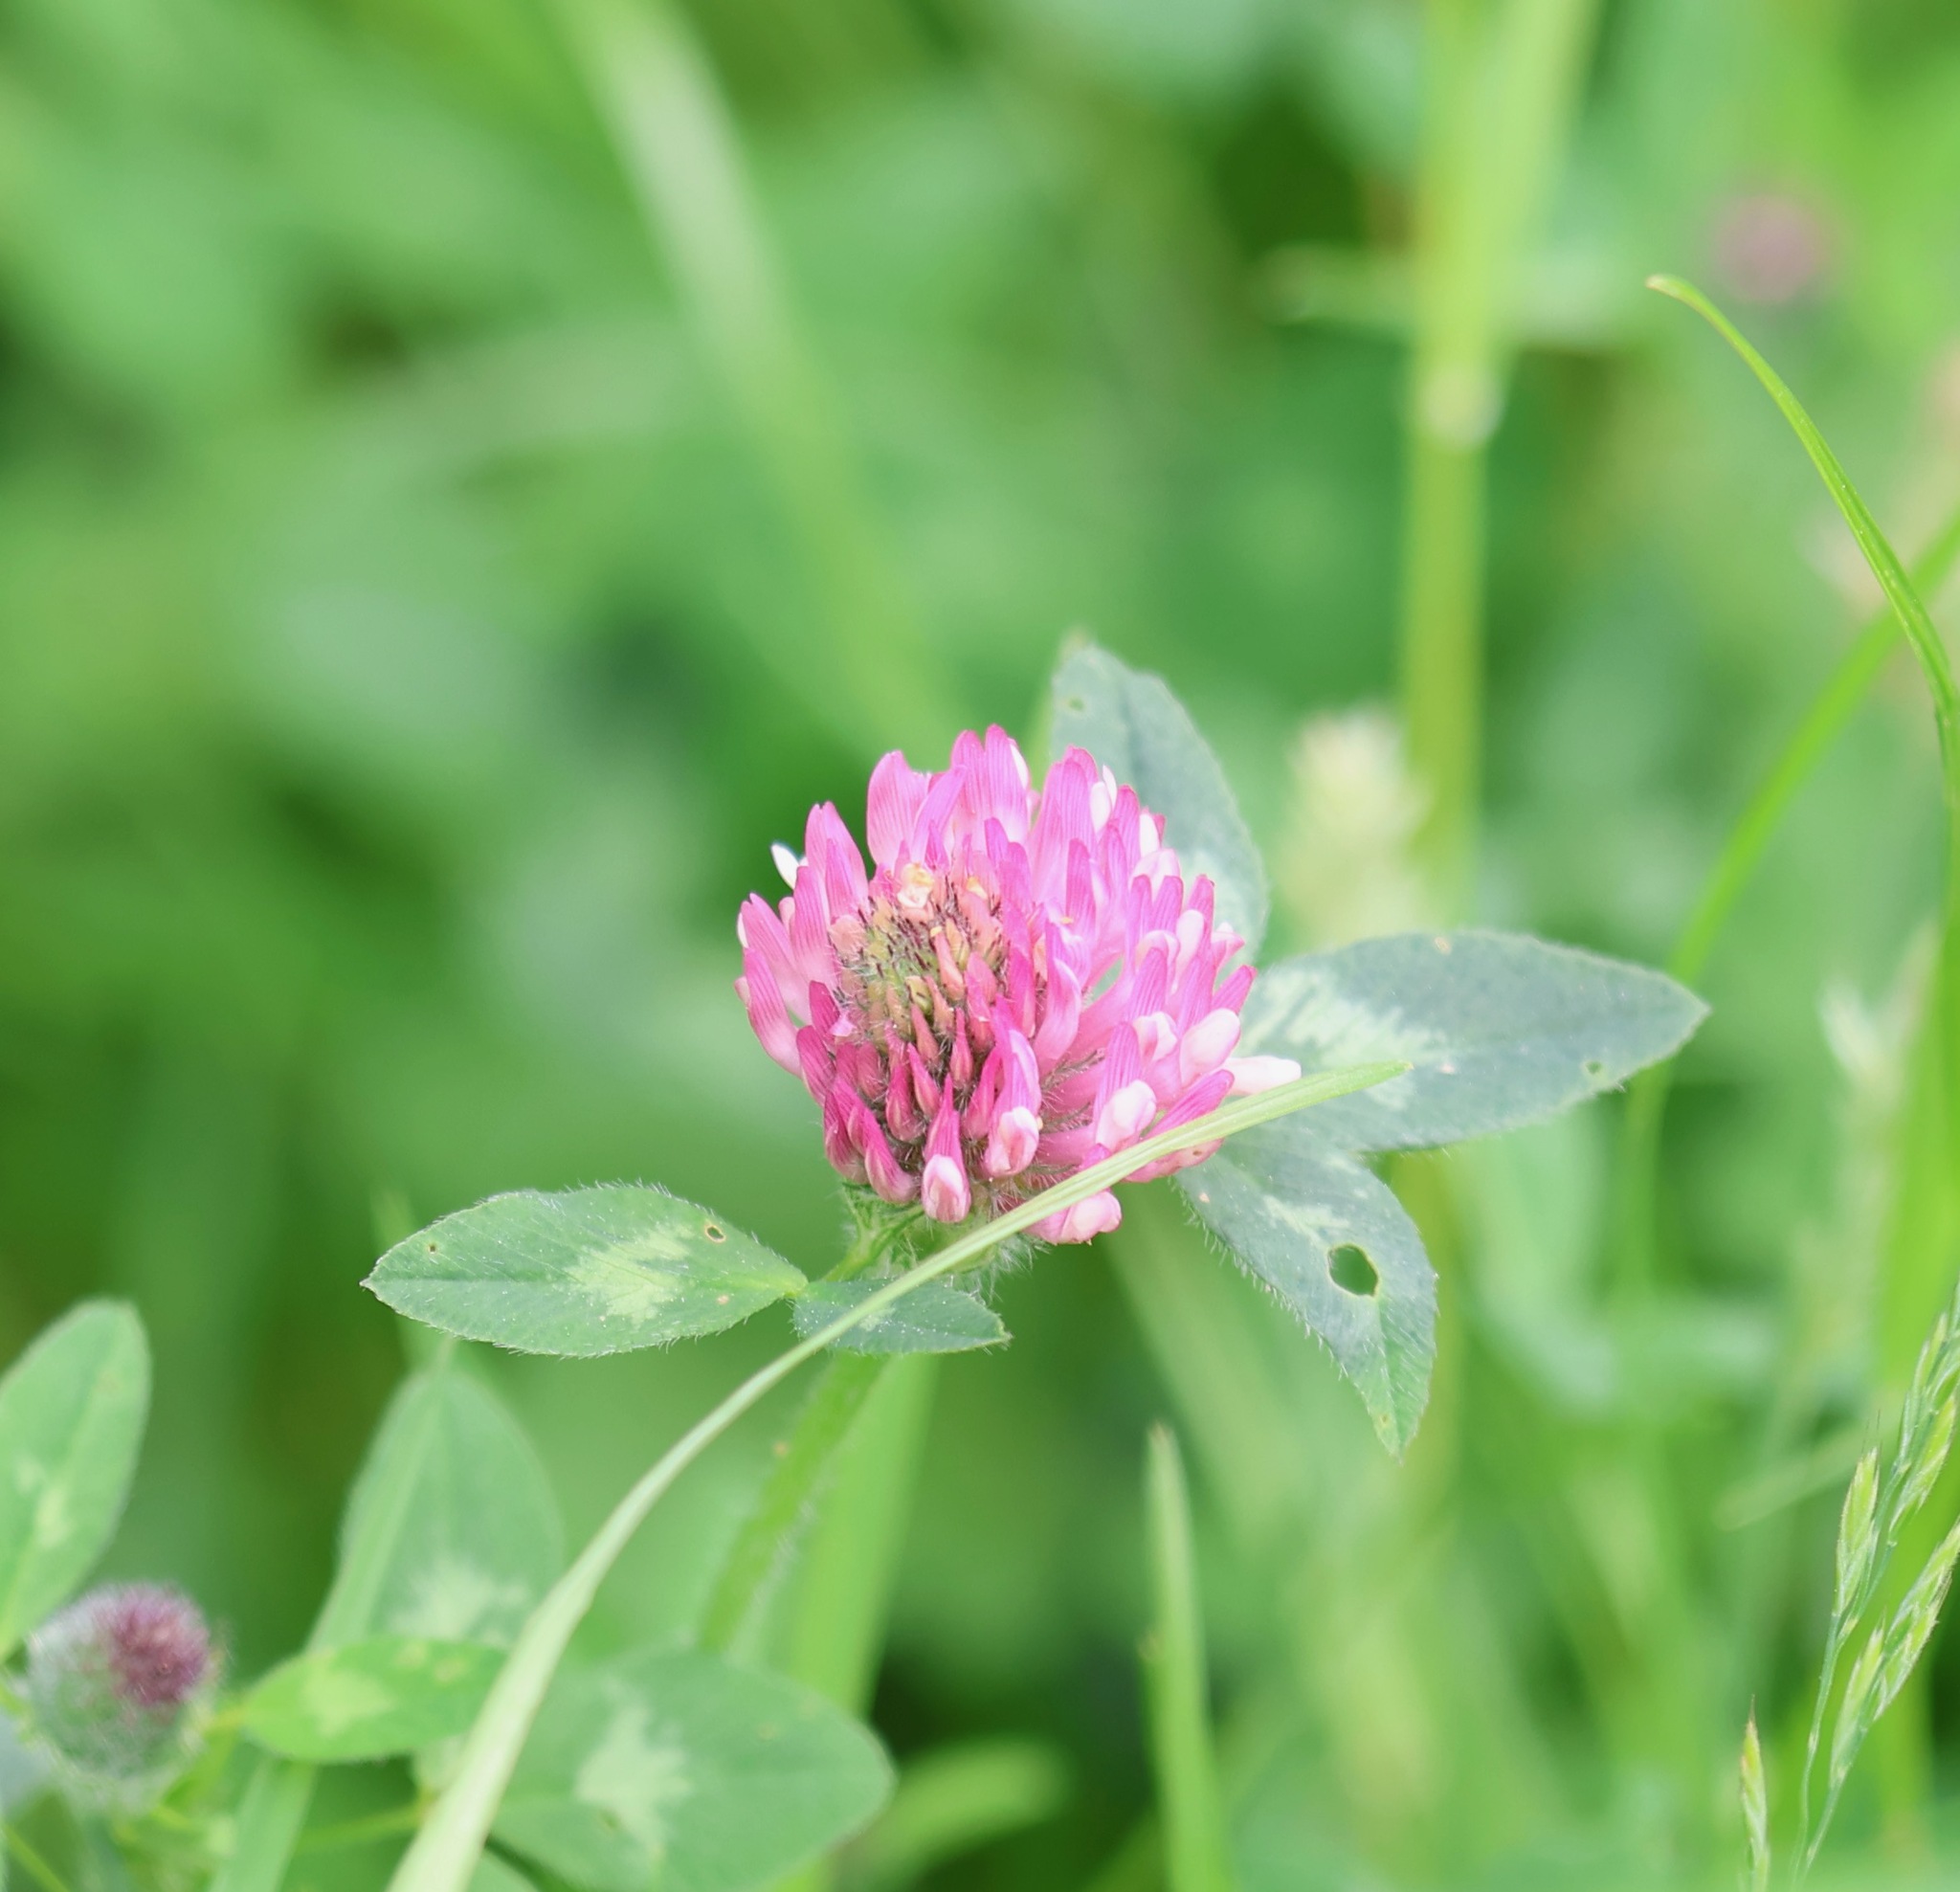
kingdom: Plantae
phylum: Tracheophyta
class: Magnoliopsida
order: Fabales
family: Fabaceae
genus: Trifolium
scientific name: Trifolium pratense
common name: Red clover
